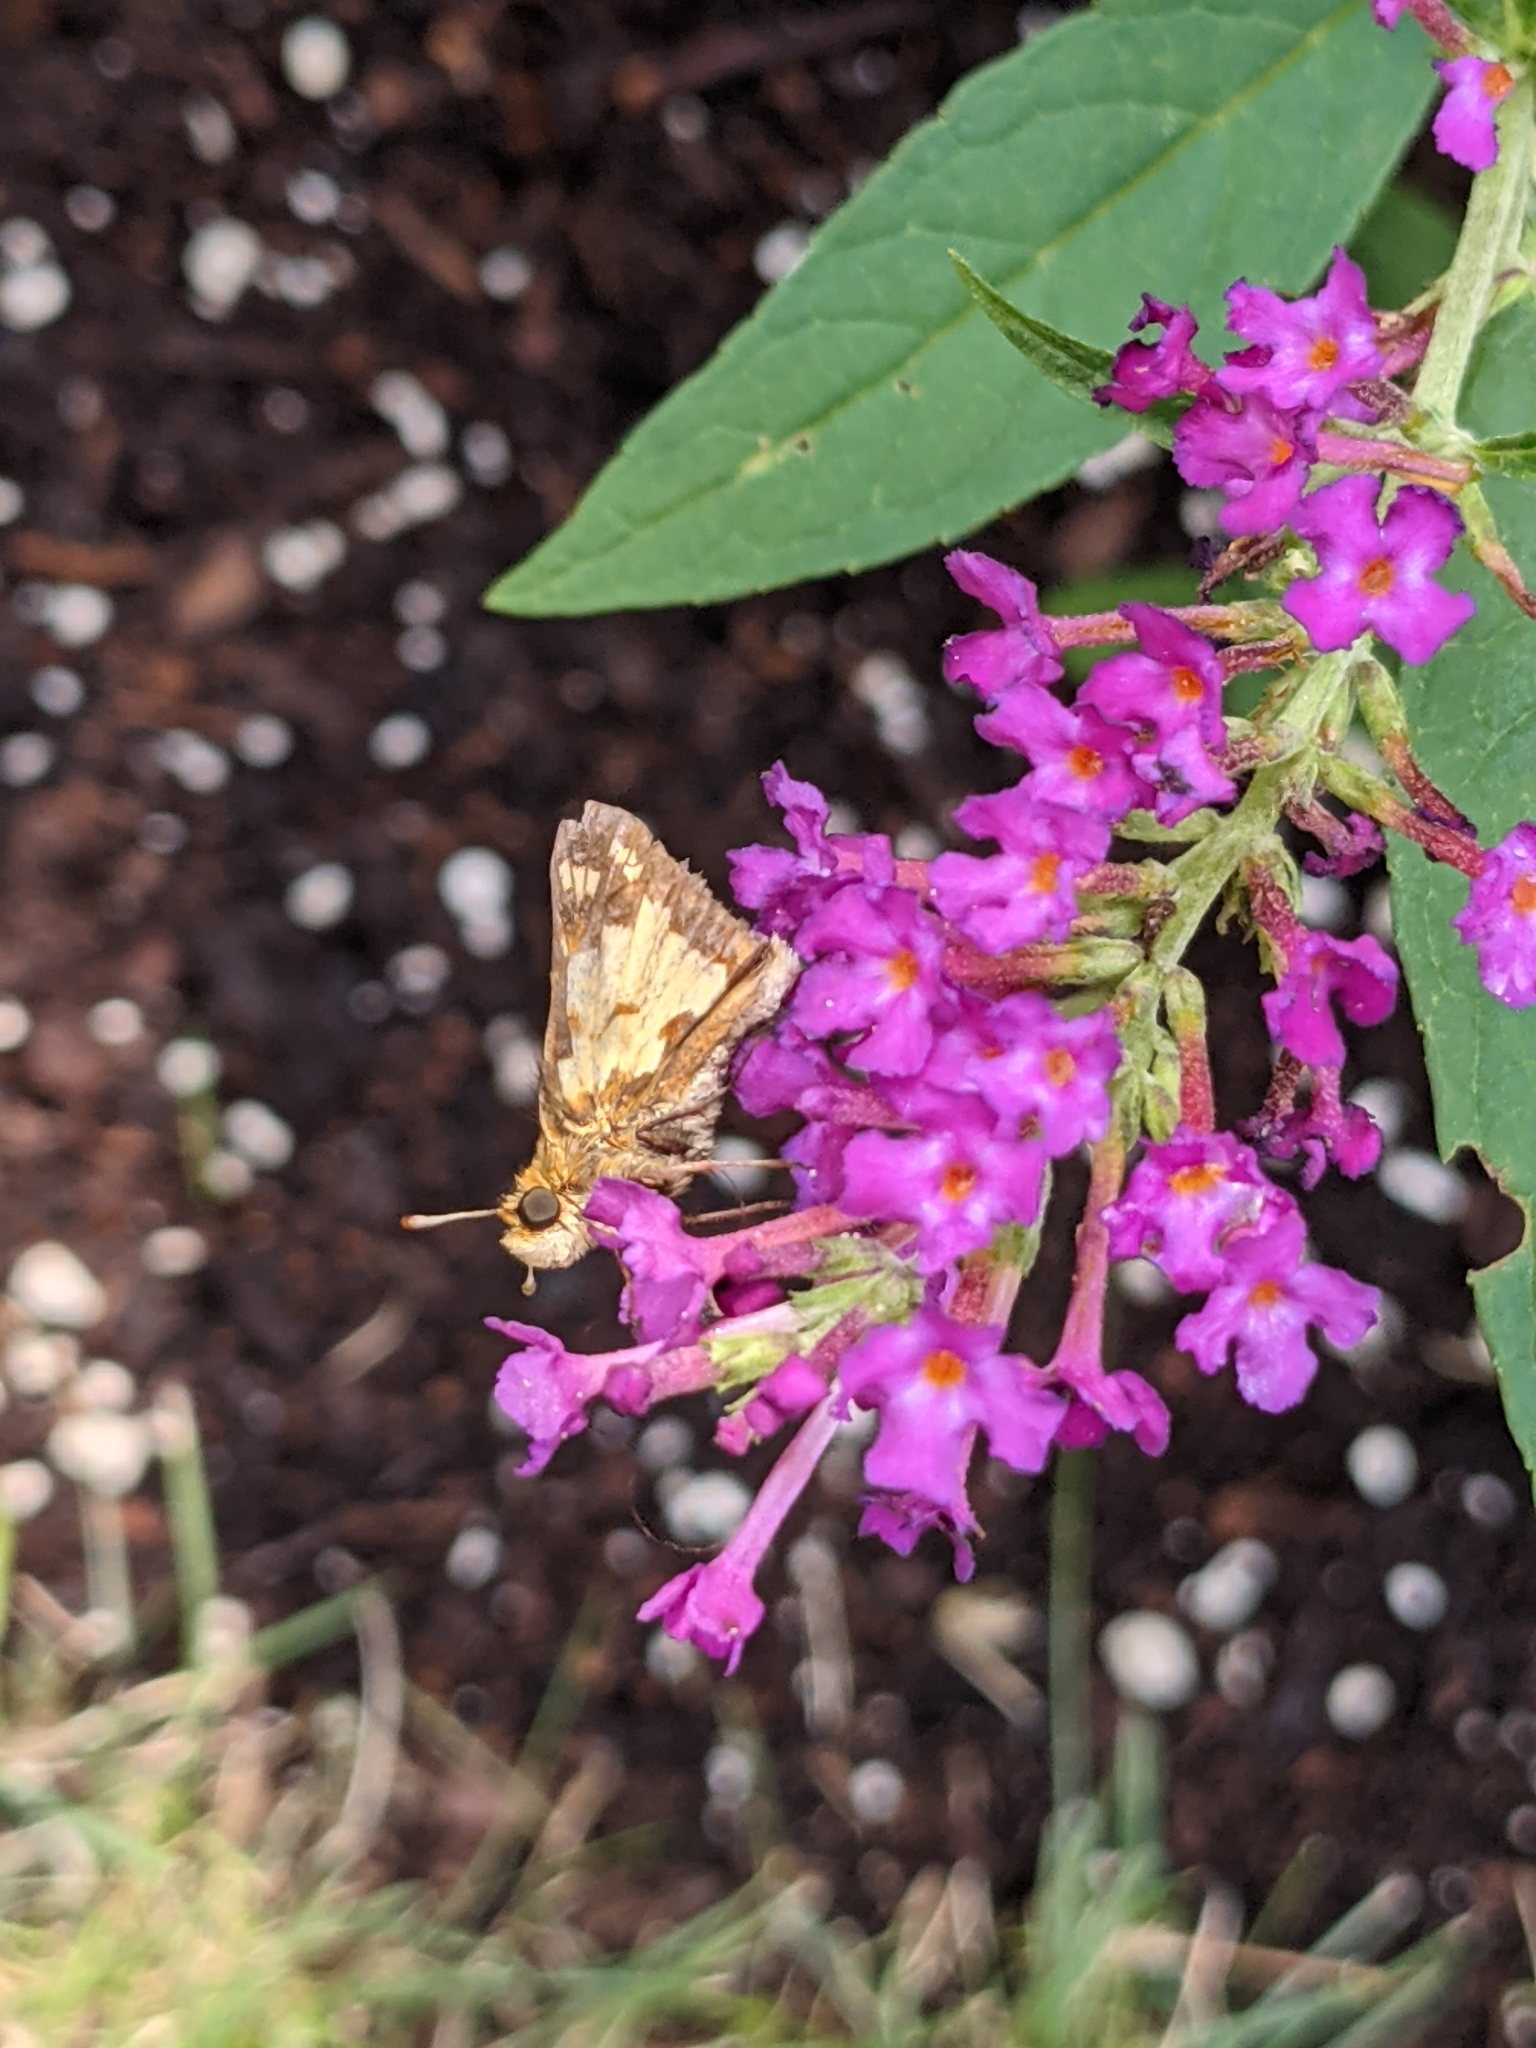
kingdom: Animalia
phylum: Arthropoda
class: Insecta
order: Lepidoptera
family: Hesperiidae
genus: Polites
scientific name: Polites coras
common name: Peck's skipper
